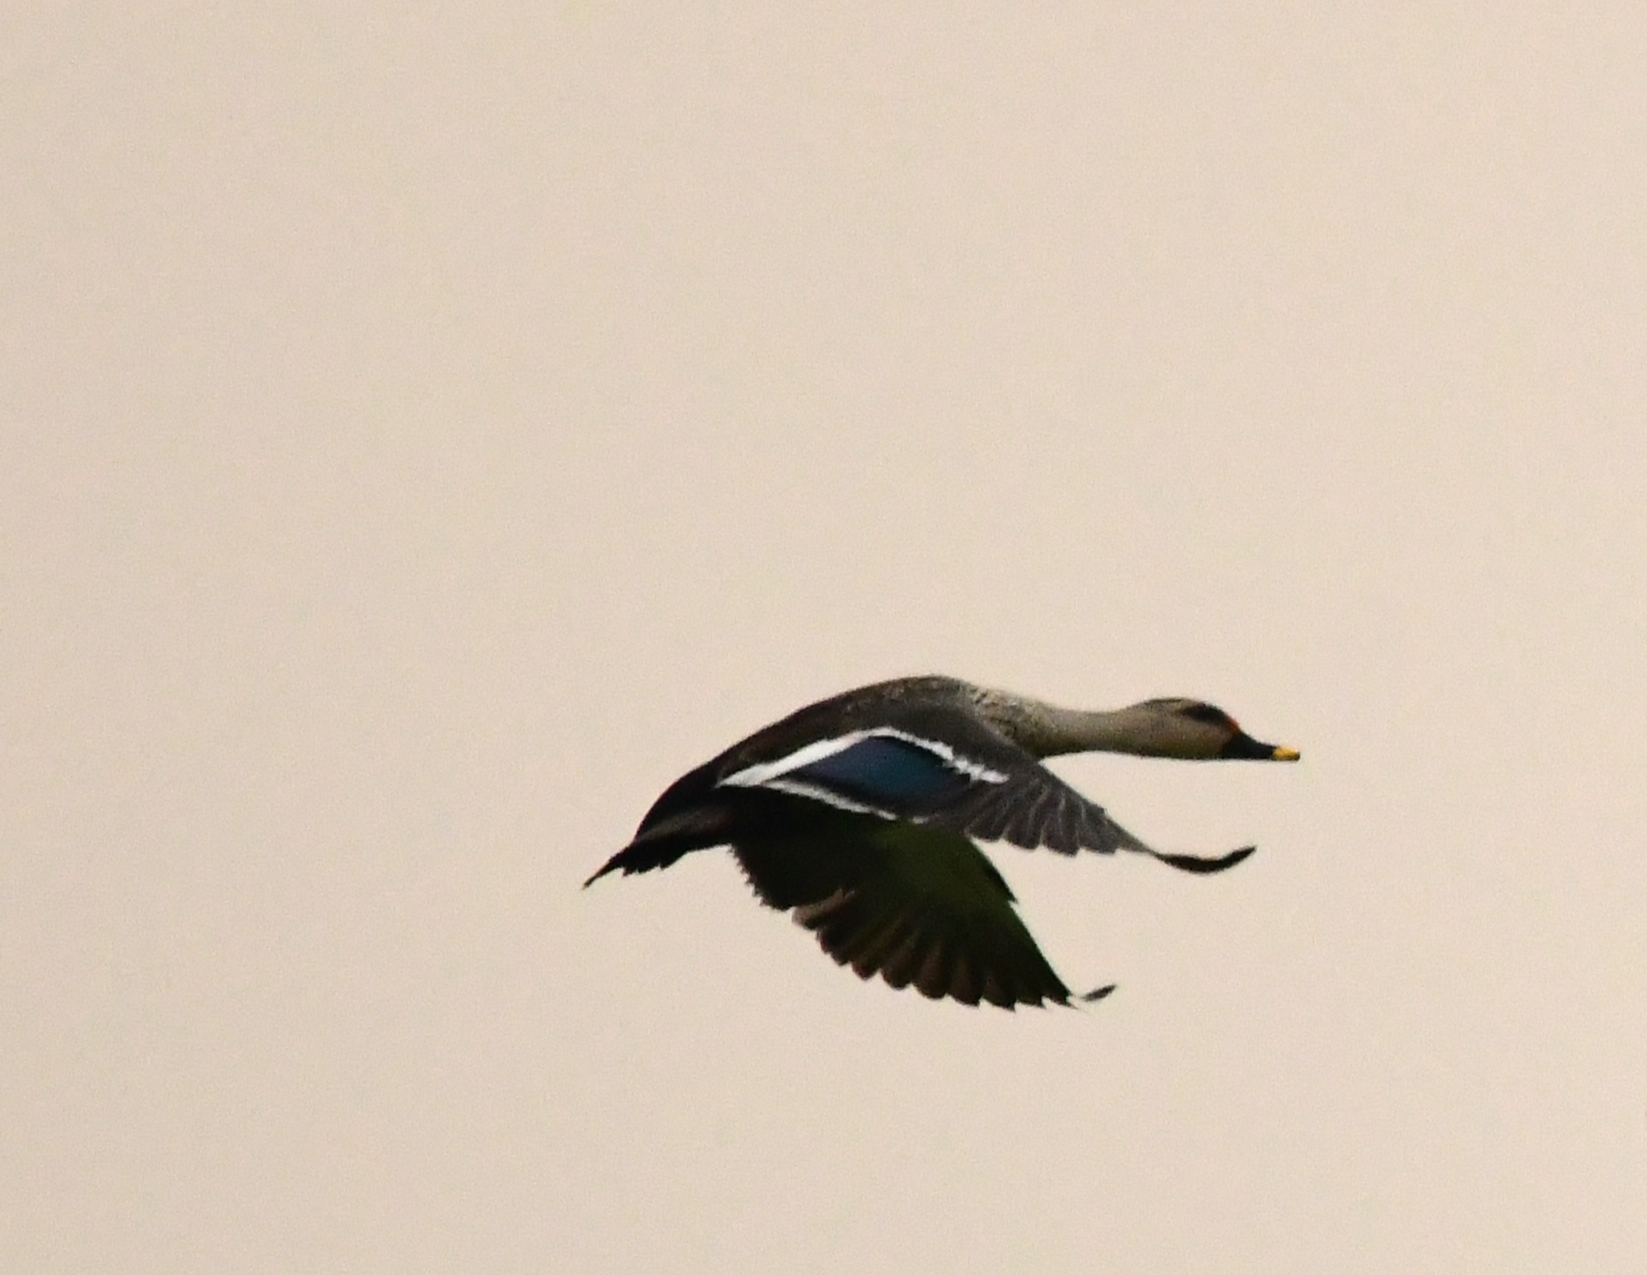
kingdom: Animalia
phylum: Chordata
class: Aves
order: Anseriformes
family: Anatidae
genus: Anas
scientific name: Anas poecilorhyncha
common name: Indian spot-billed duck
